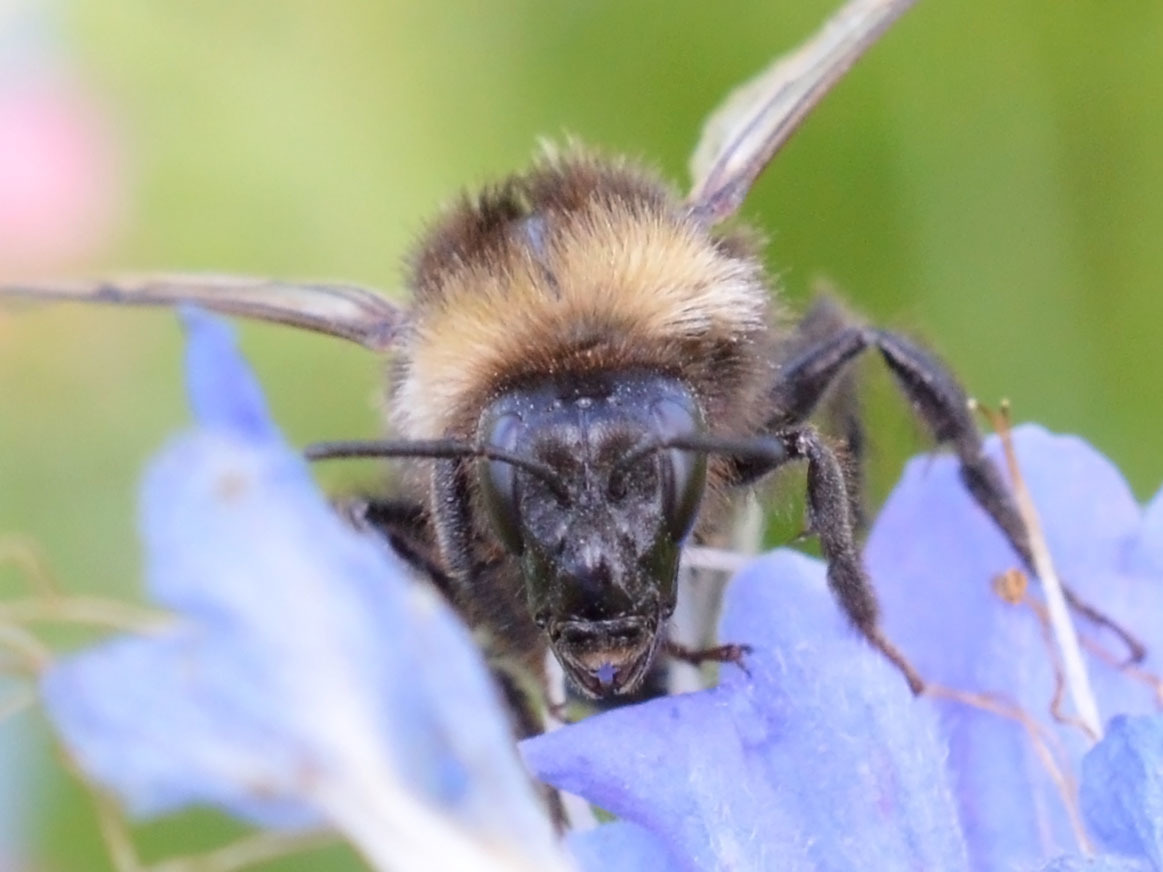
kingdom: Animalia
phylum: Arthropoda
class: Insecta
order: Hymenoptera
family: Apidae
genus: Bombus
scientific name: Bombus hortorum
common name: Garden bumblebee
